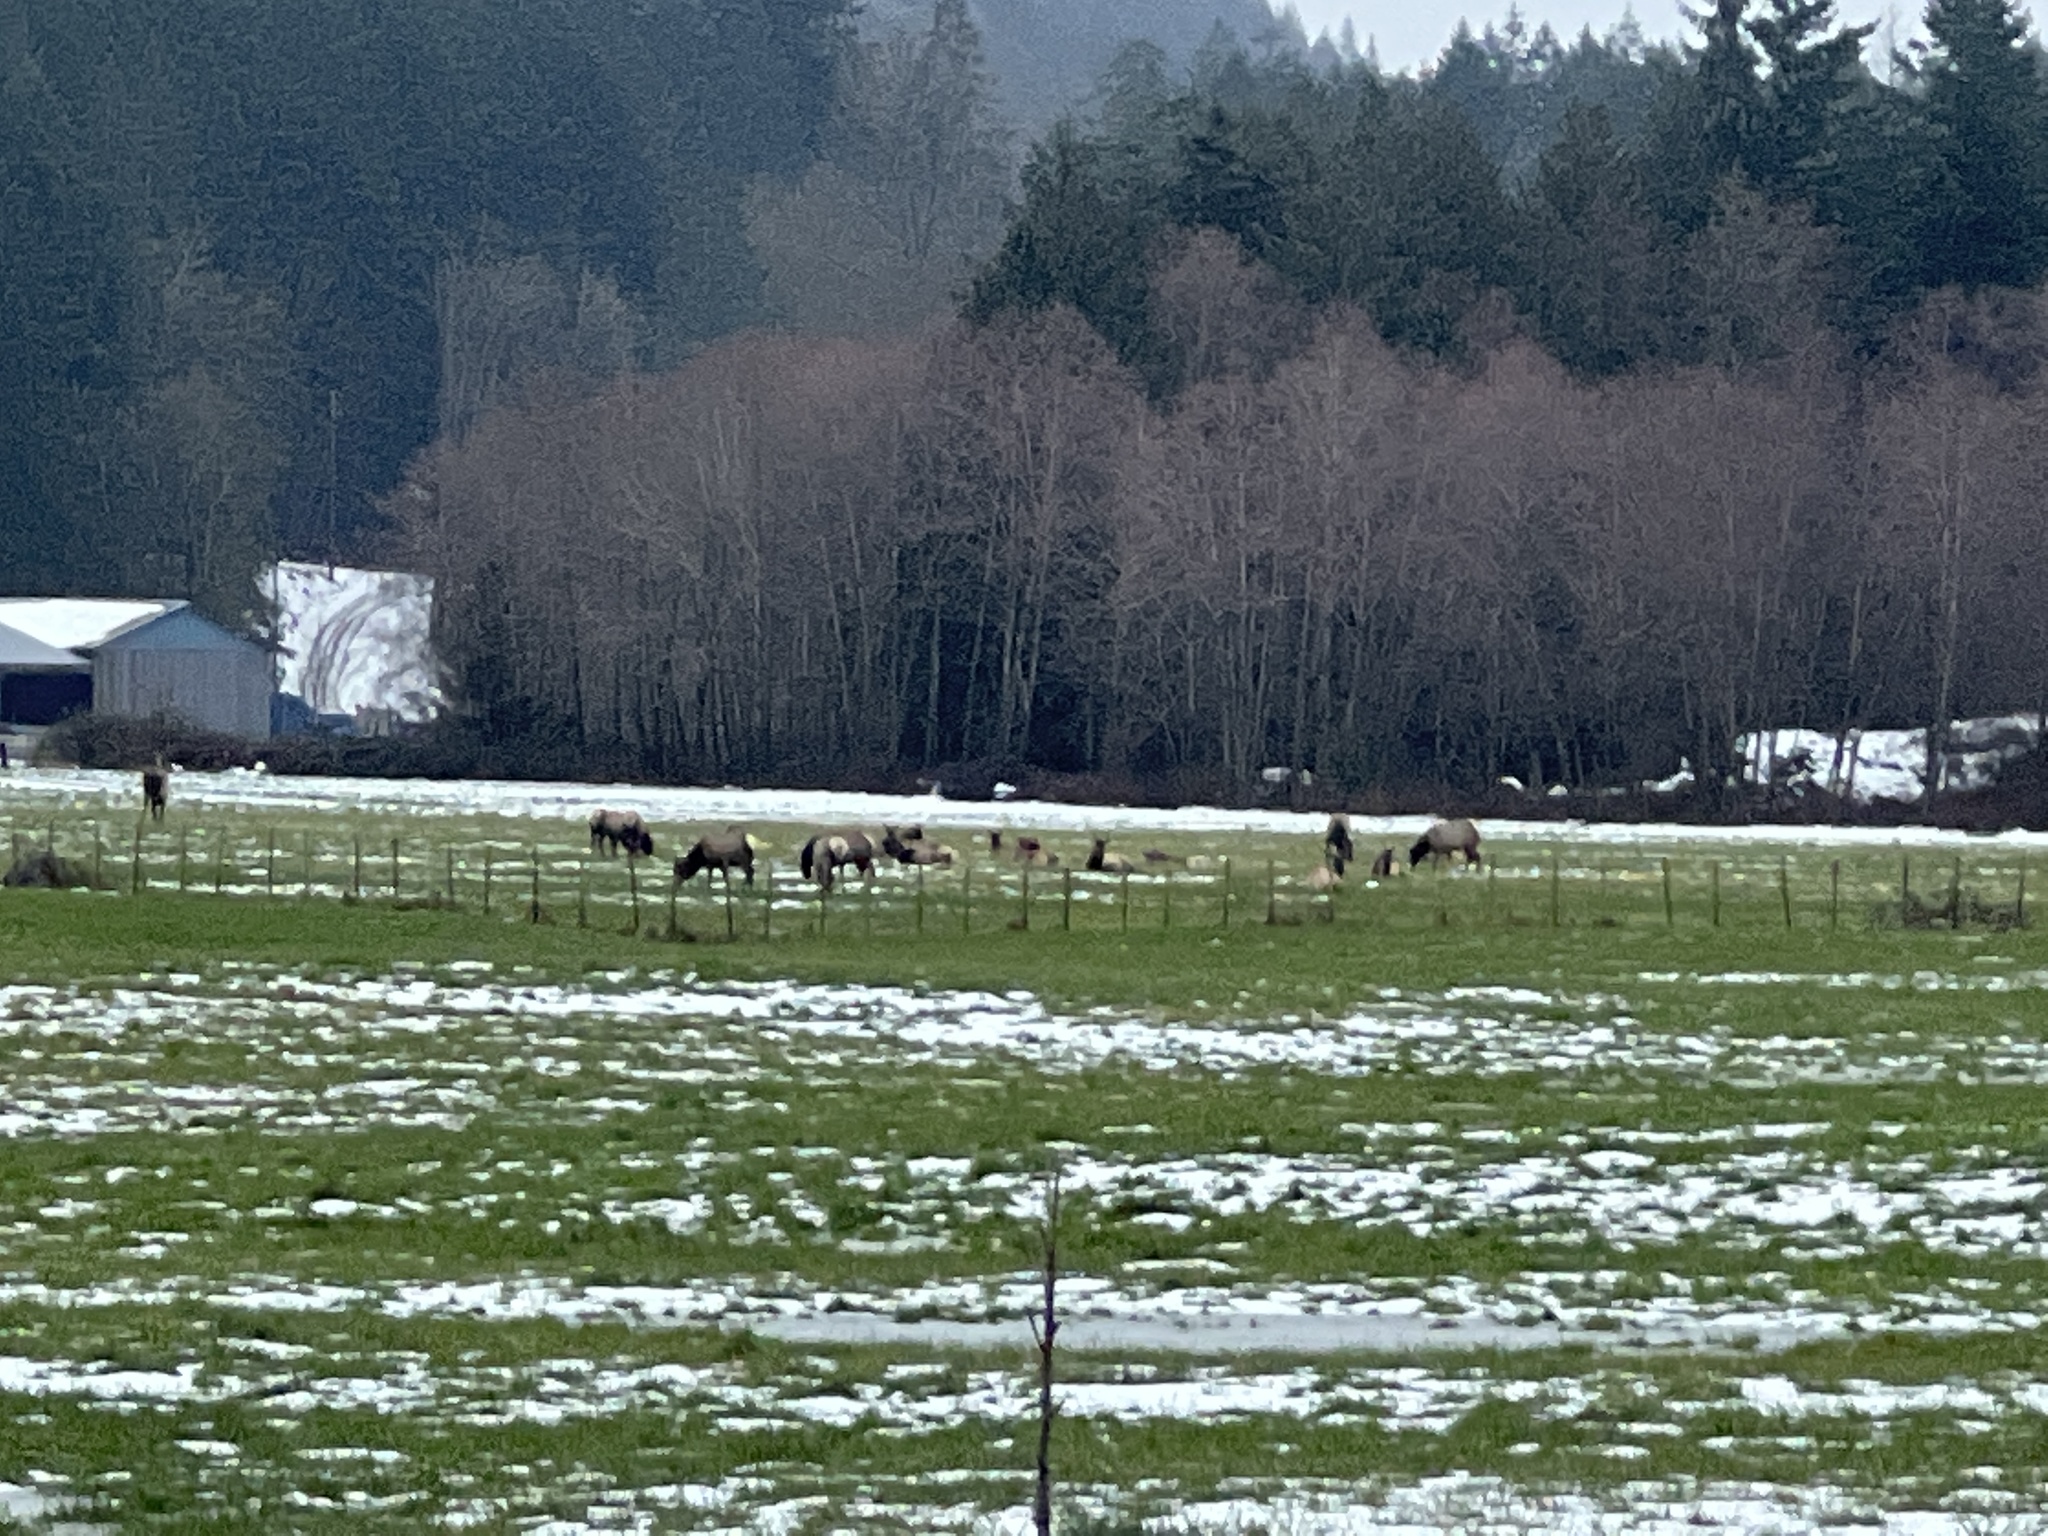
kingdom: Animalia
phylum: Chordata
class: Mammalia
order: Artiodactyla
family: Cervidae
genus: Cervus
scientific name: Cervus elaphus
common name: Red deer
